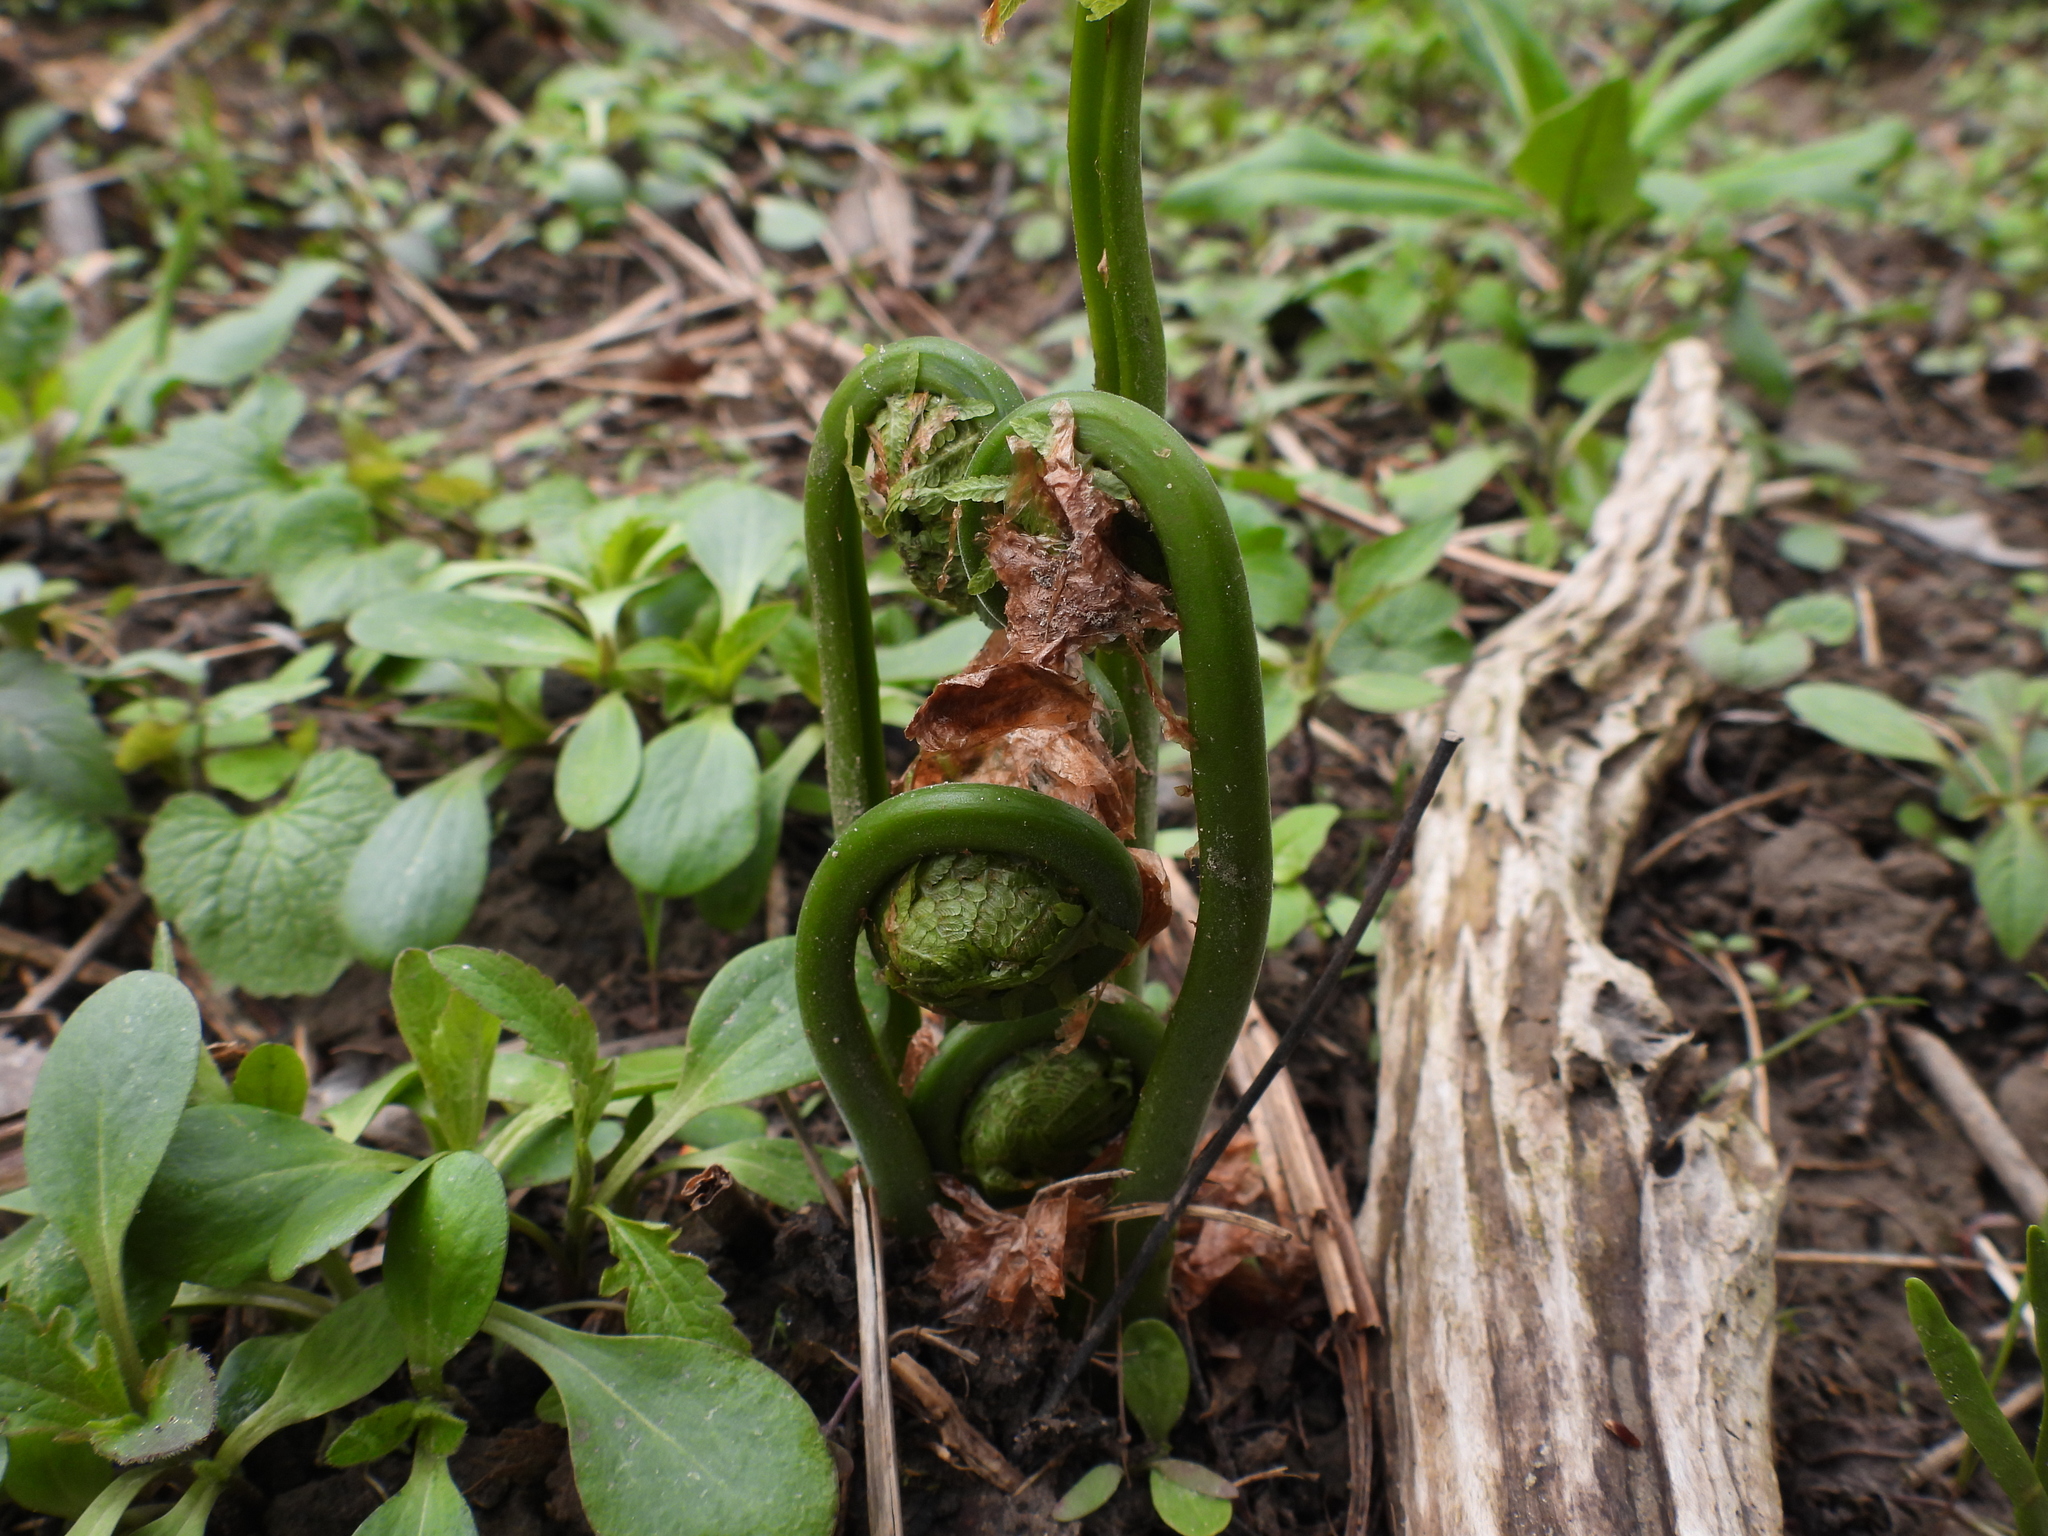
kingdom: Plantae
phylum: Tracheophyta
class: Polypodiopsida
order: Polypodiales
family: Onocleaceae
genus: Matteuccia
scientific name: Matteuccia struthiopteris
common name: Ostrich fern
